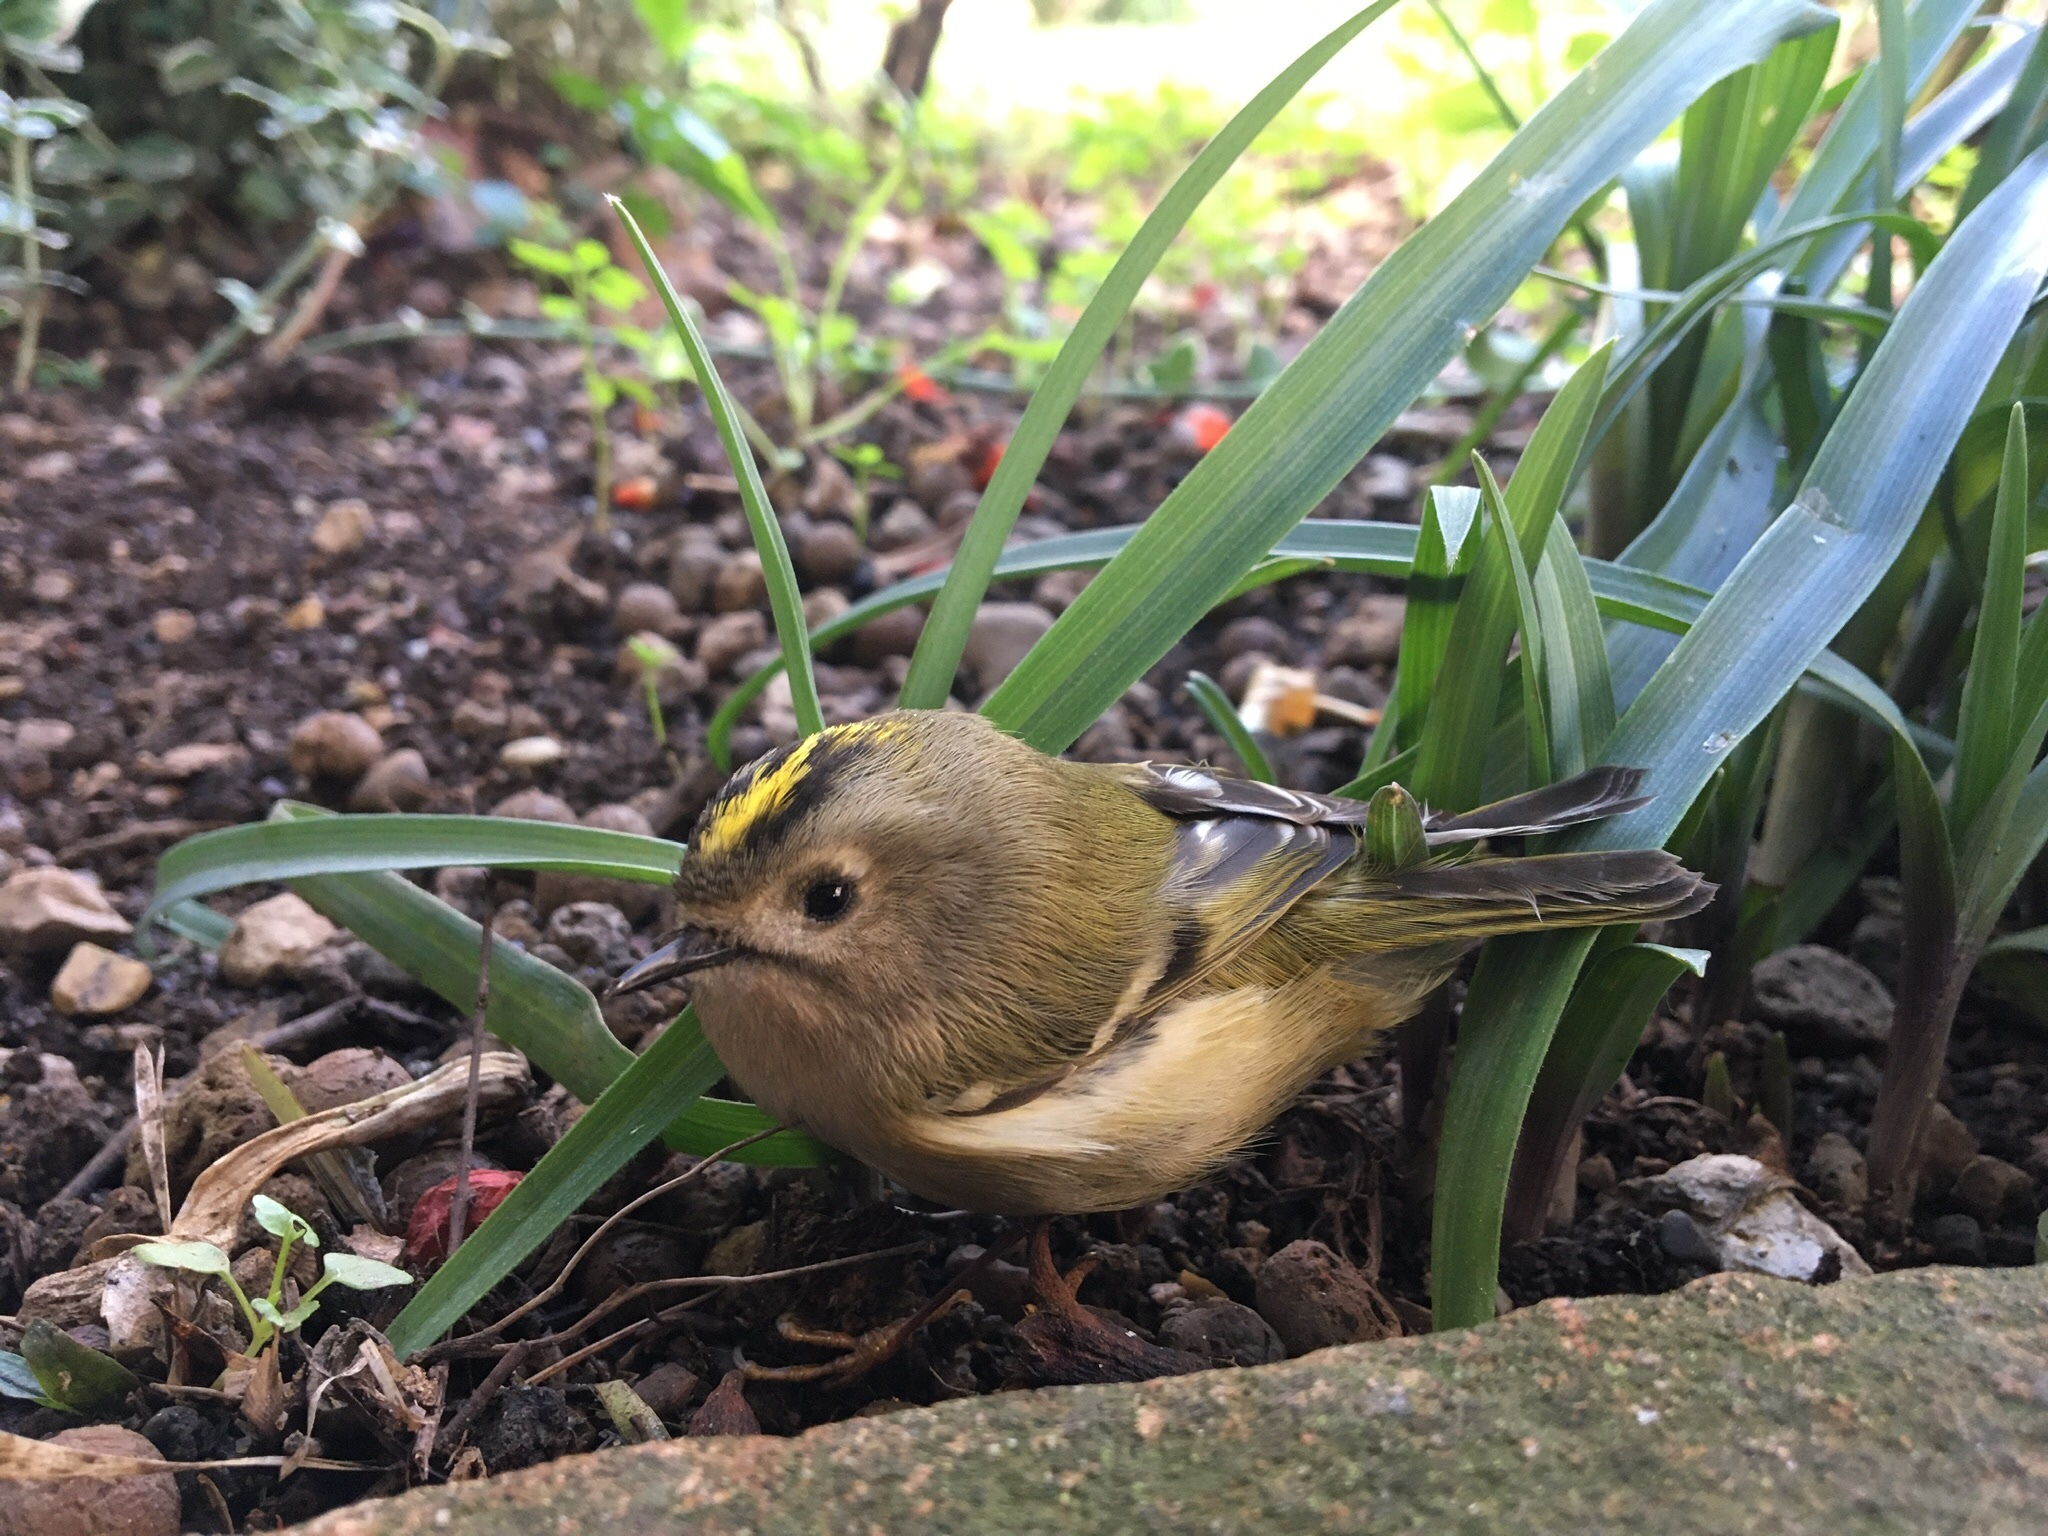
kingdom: Animalia
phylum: Chordata
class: Aves
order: Passeriformes
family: Regulidae
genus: Regulus
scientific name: Regulus regulus
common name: Goldcrest
